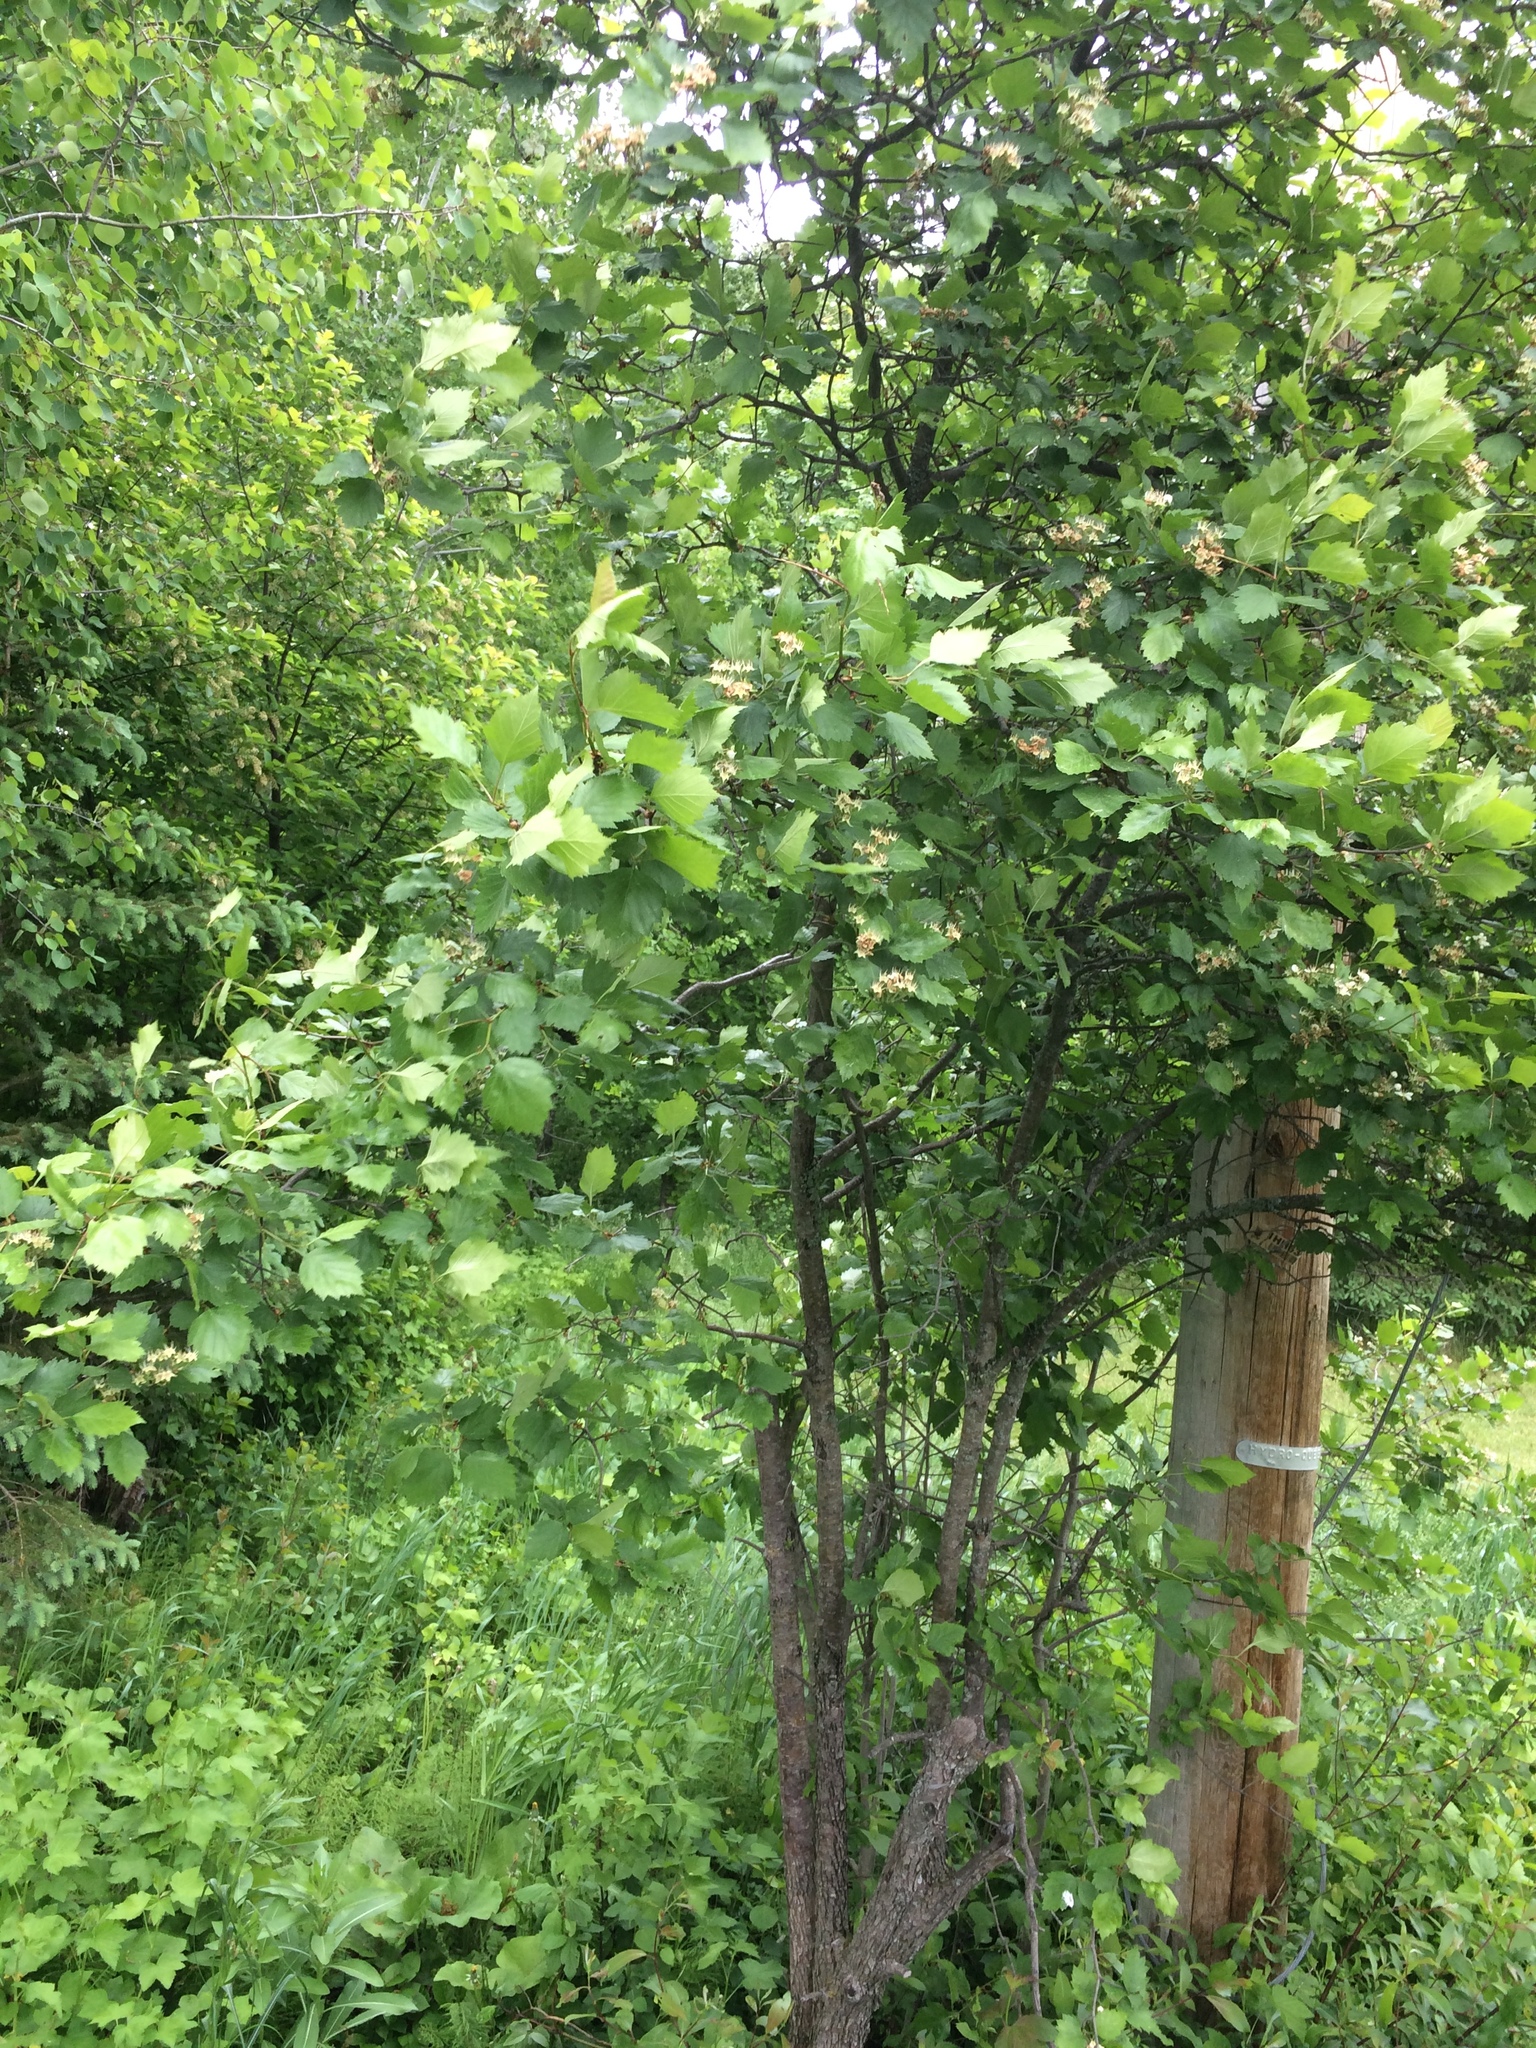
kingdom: Plantae
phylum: Tracheophyta
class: Magnoliopsida
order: Rosales
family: Rosaceae
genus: Crataegus
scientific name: Crataegus chrysocarpa
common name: Fire-berry hawthorn
